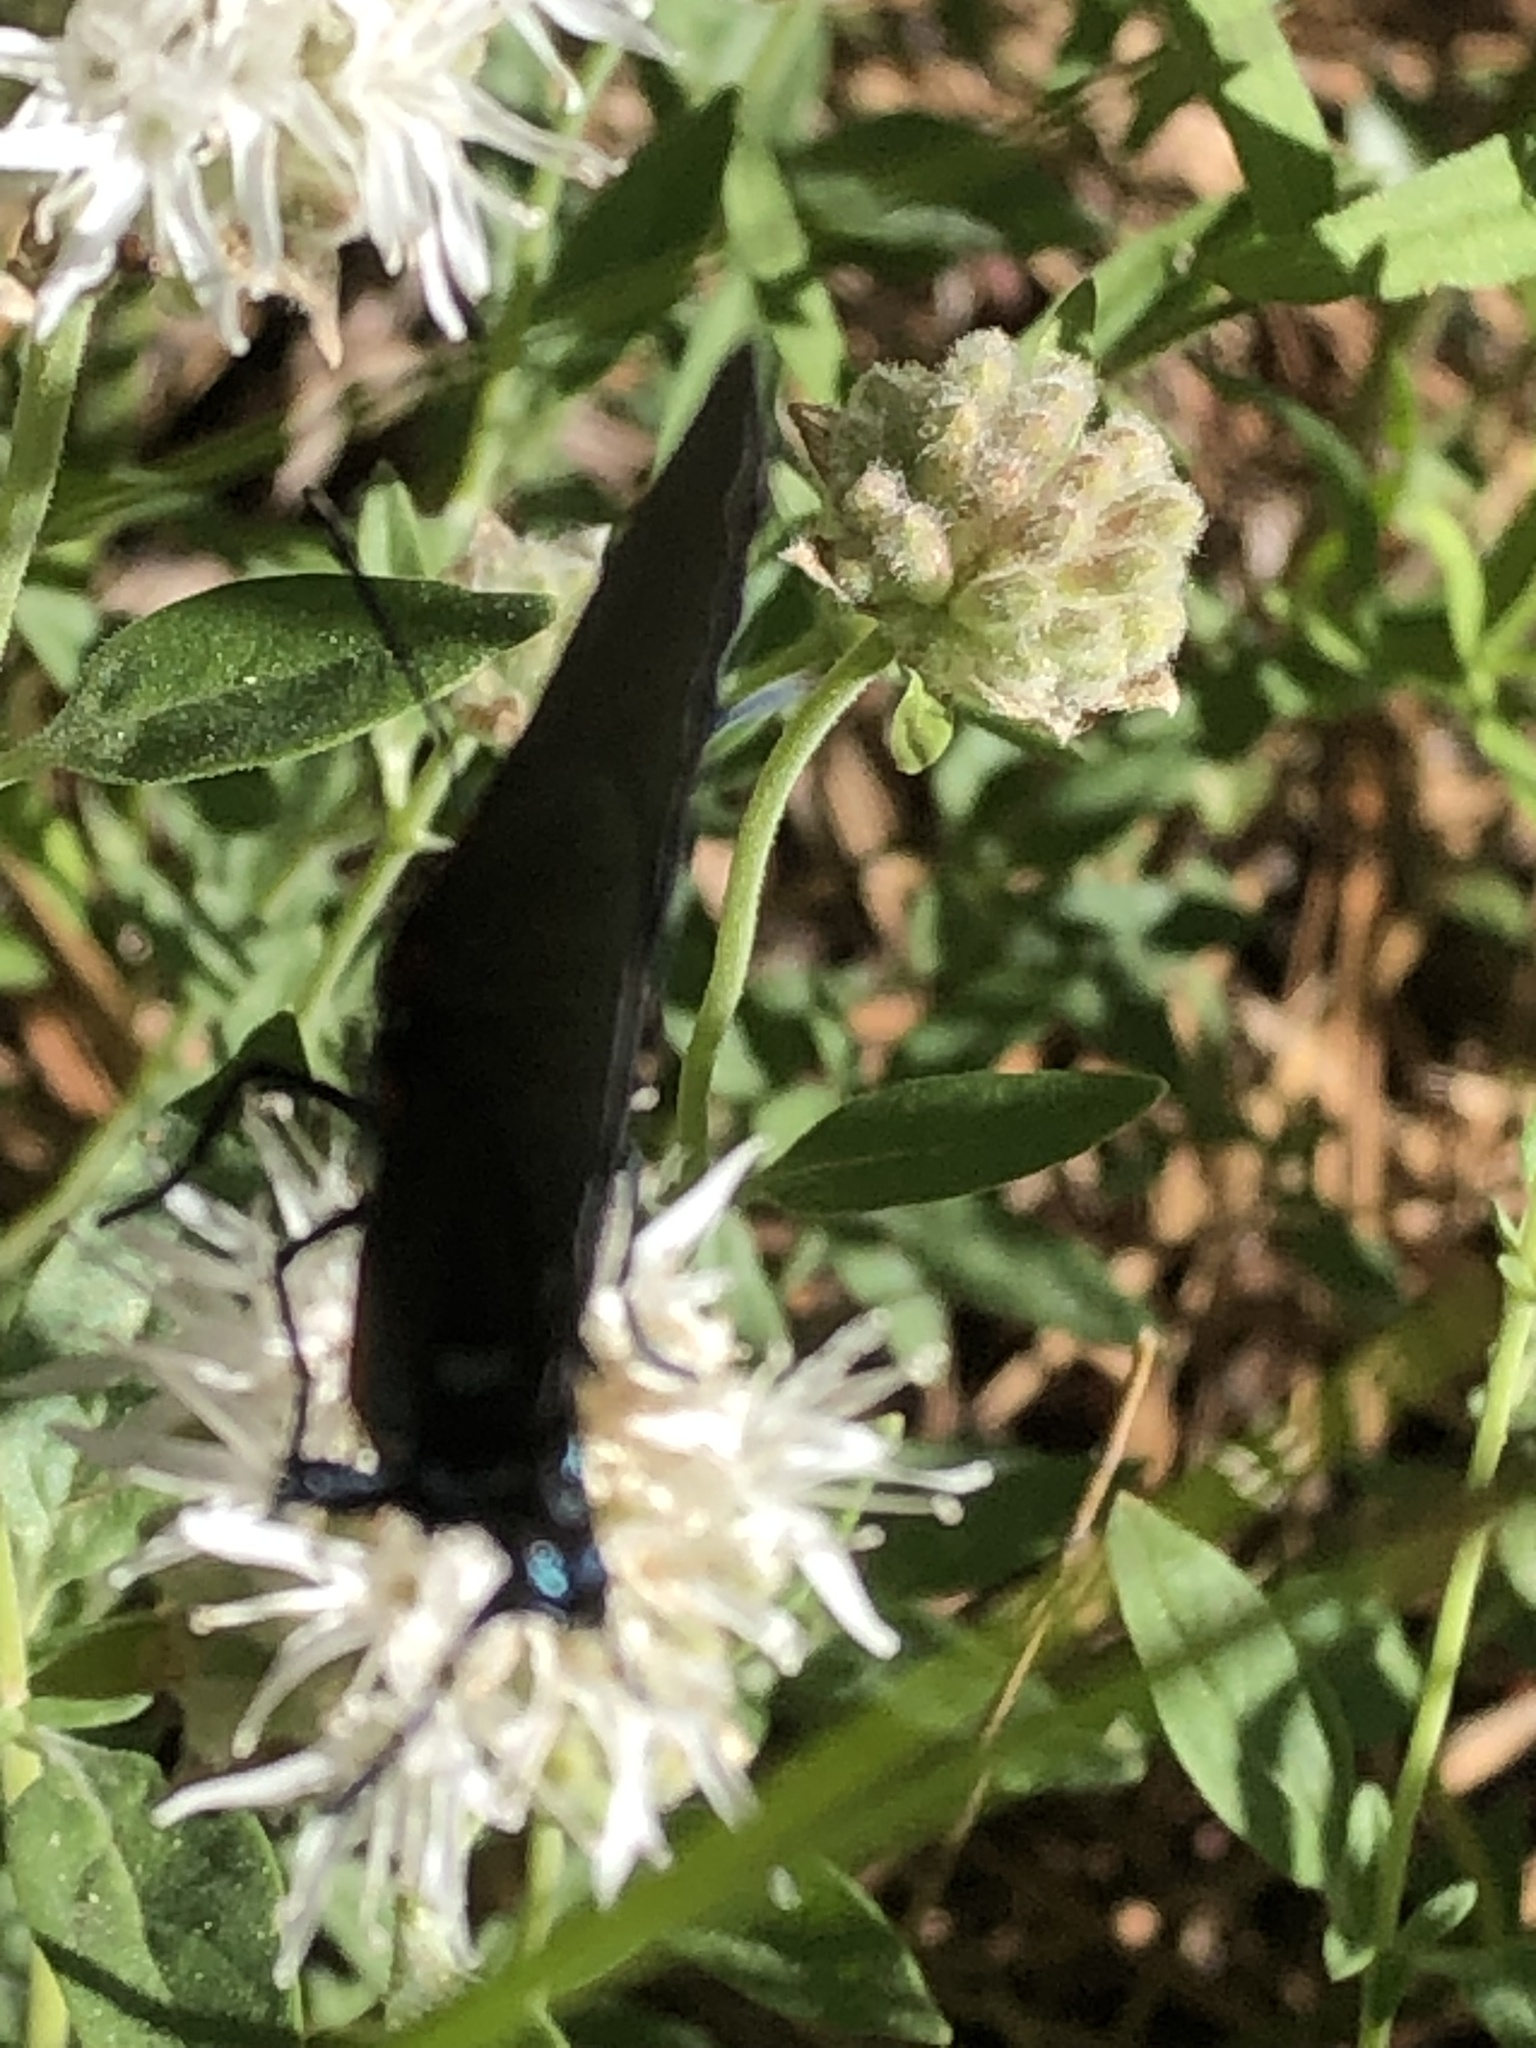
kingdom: Animalia
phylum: Arthropoda
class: Insecta
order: Lepidoptera
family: Lycaenidae
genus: Atlides
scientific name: Atlides halesus
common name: Great purple hairstreak
